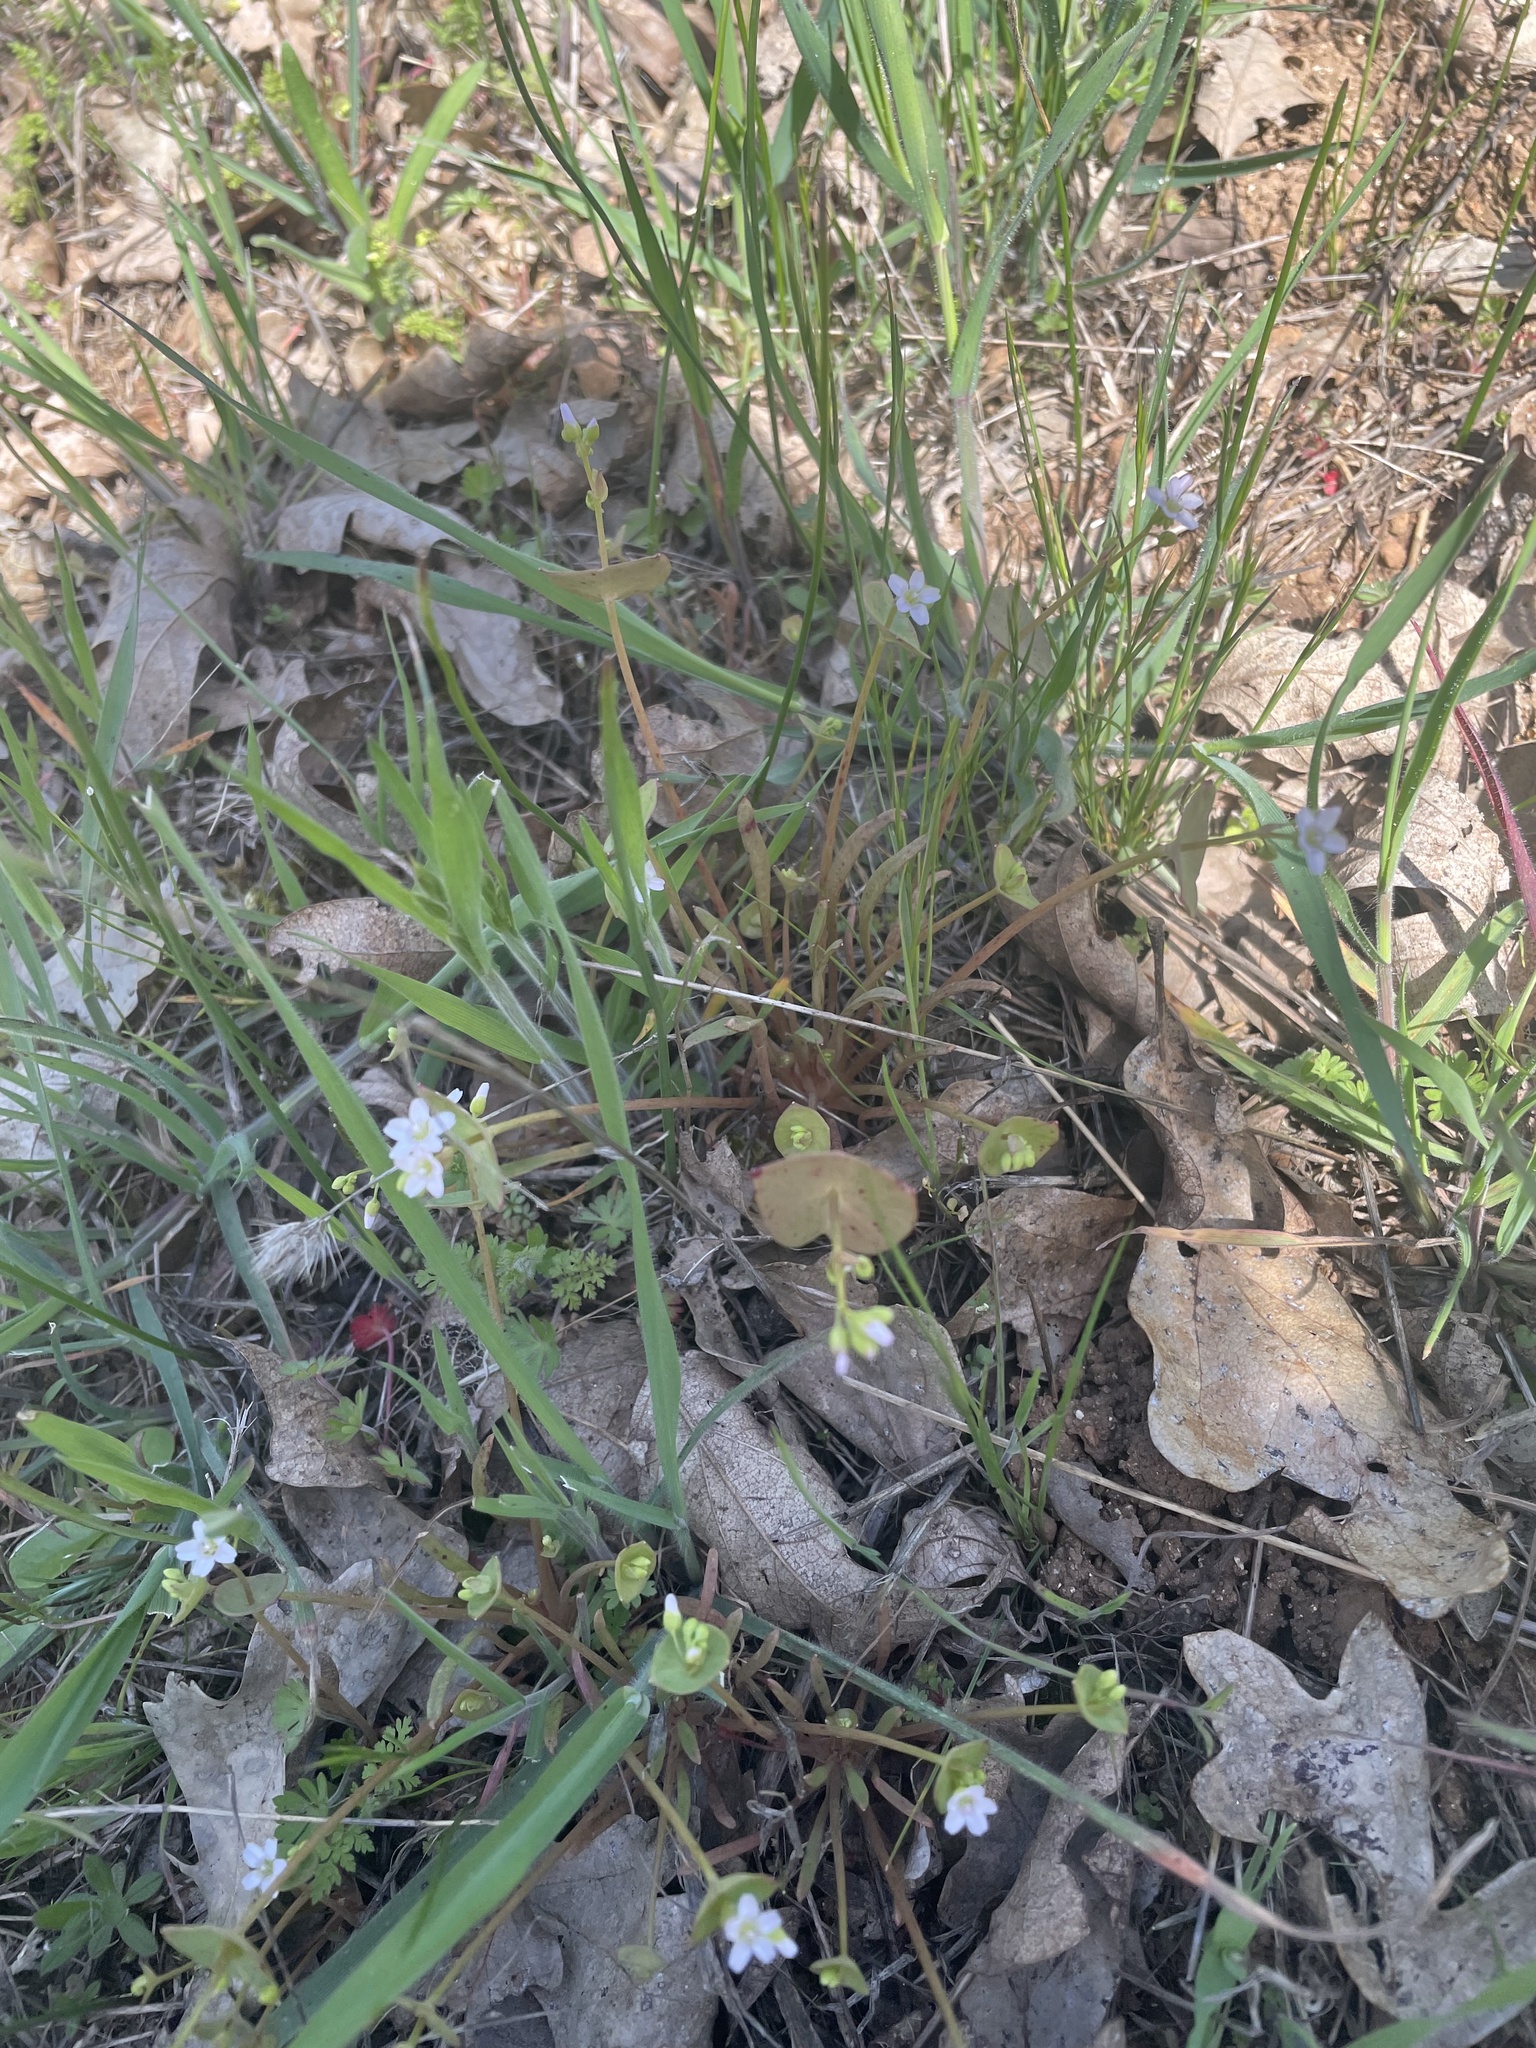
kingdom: Plantae
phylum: Tracheophyta
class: Magnoliopsida
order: Caryophyllales
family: Montiaceae
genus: Claytonia
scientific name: Claytonia parviflora
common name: Indian-lettuce
